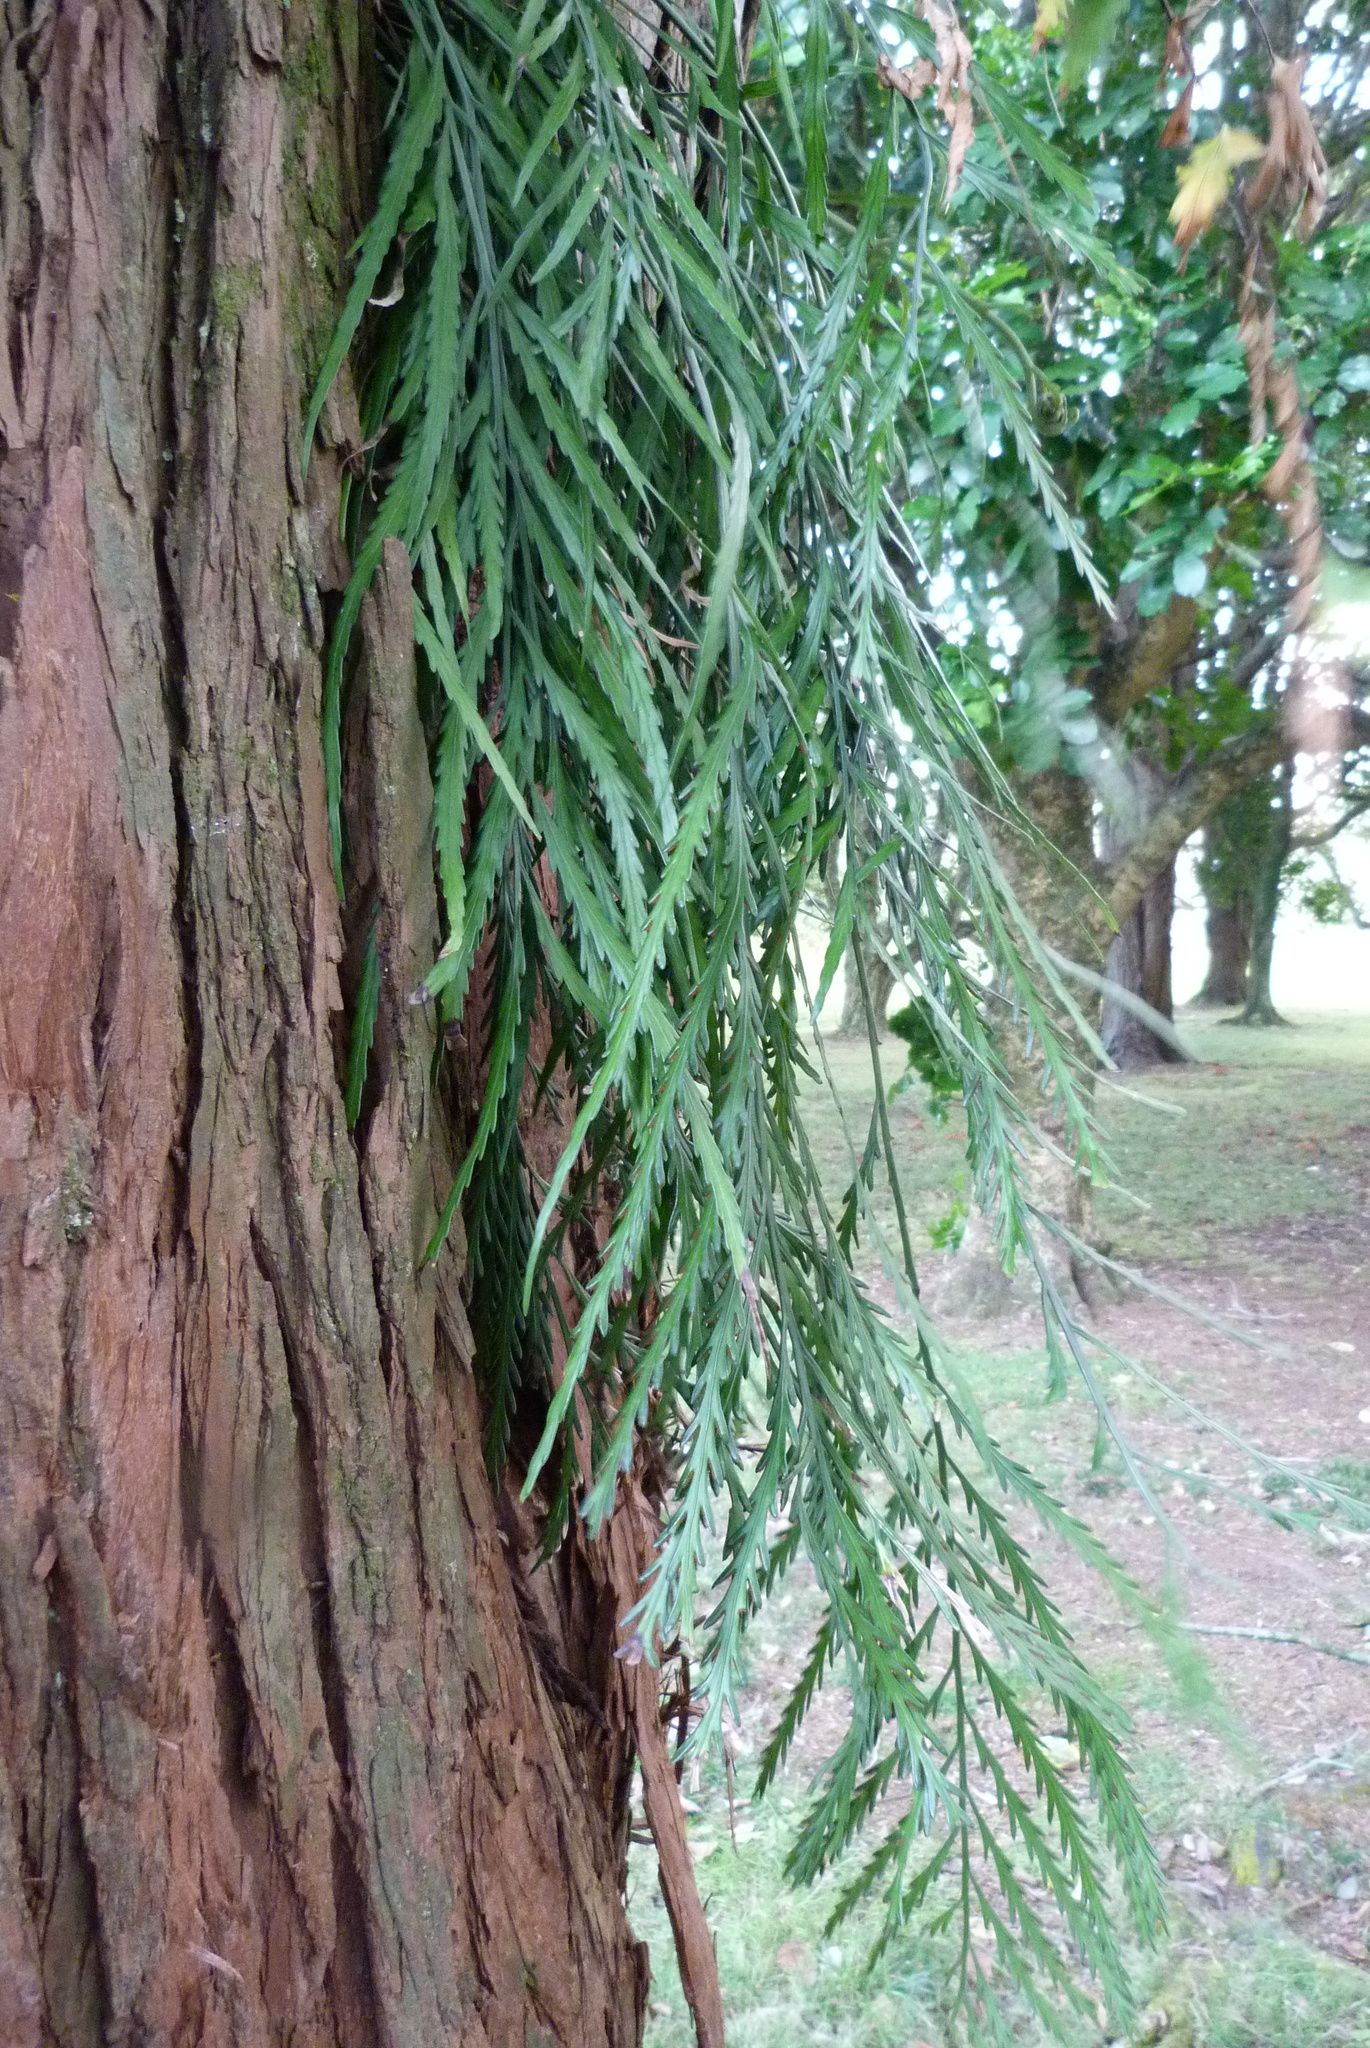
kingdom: Plantae
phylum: Tracheophyta
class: Polypodiopsida
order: Polypodiales
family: Aspleniaceae
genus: Asplenium
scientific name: Asplenium flaccidum
